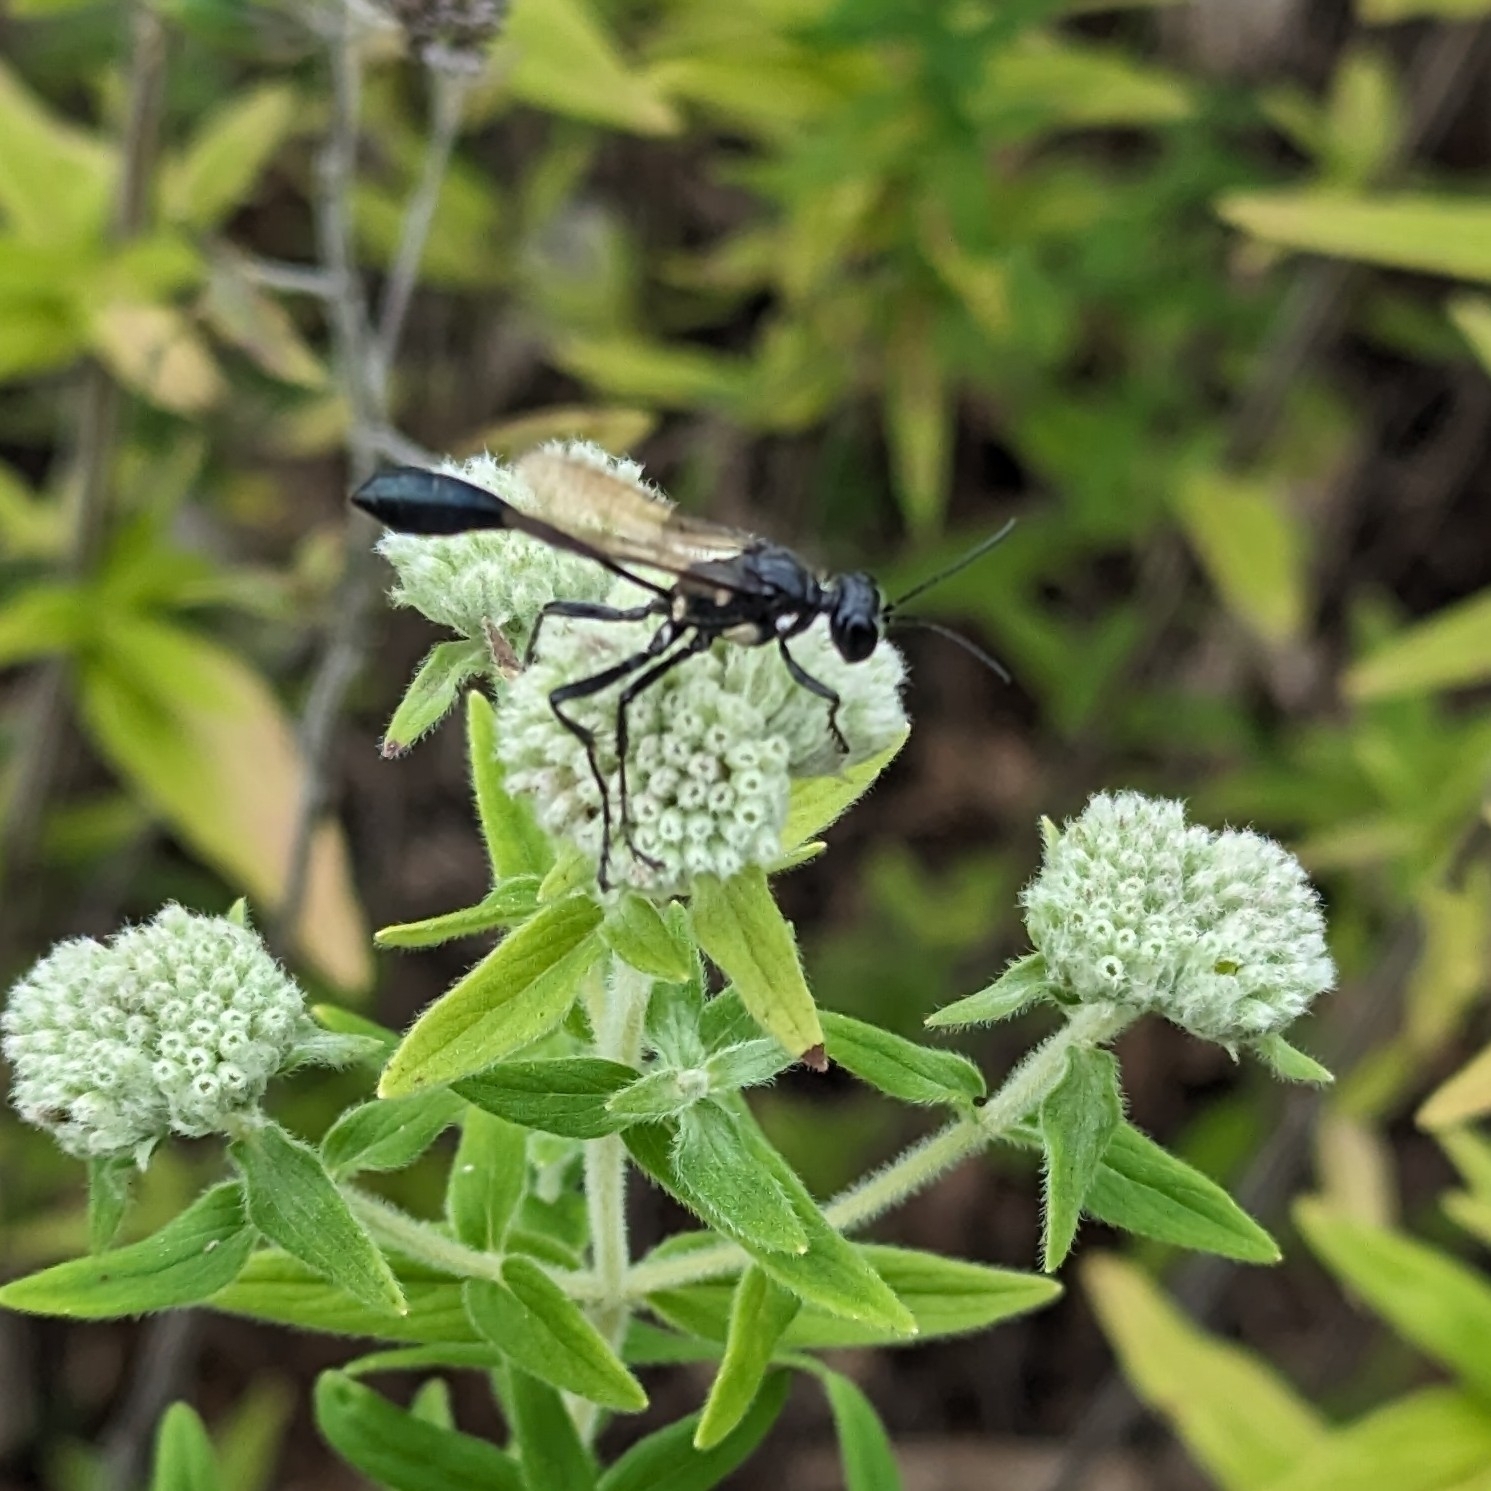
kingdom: Animalia
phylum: Arthropoda
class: Insecta
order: Hymenoptera
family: Sphecidae
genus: Eremnophila
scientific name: Eremnophila aureonotata
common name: Gold-marked thread-waisted wasp
